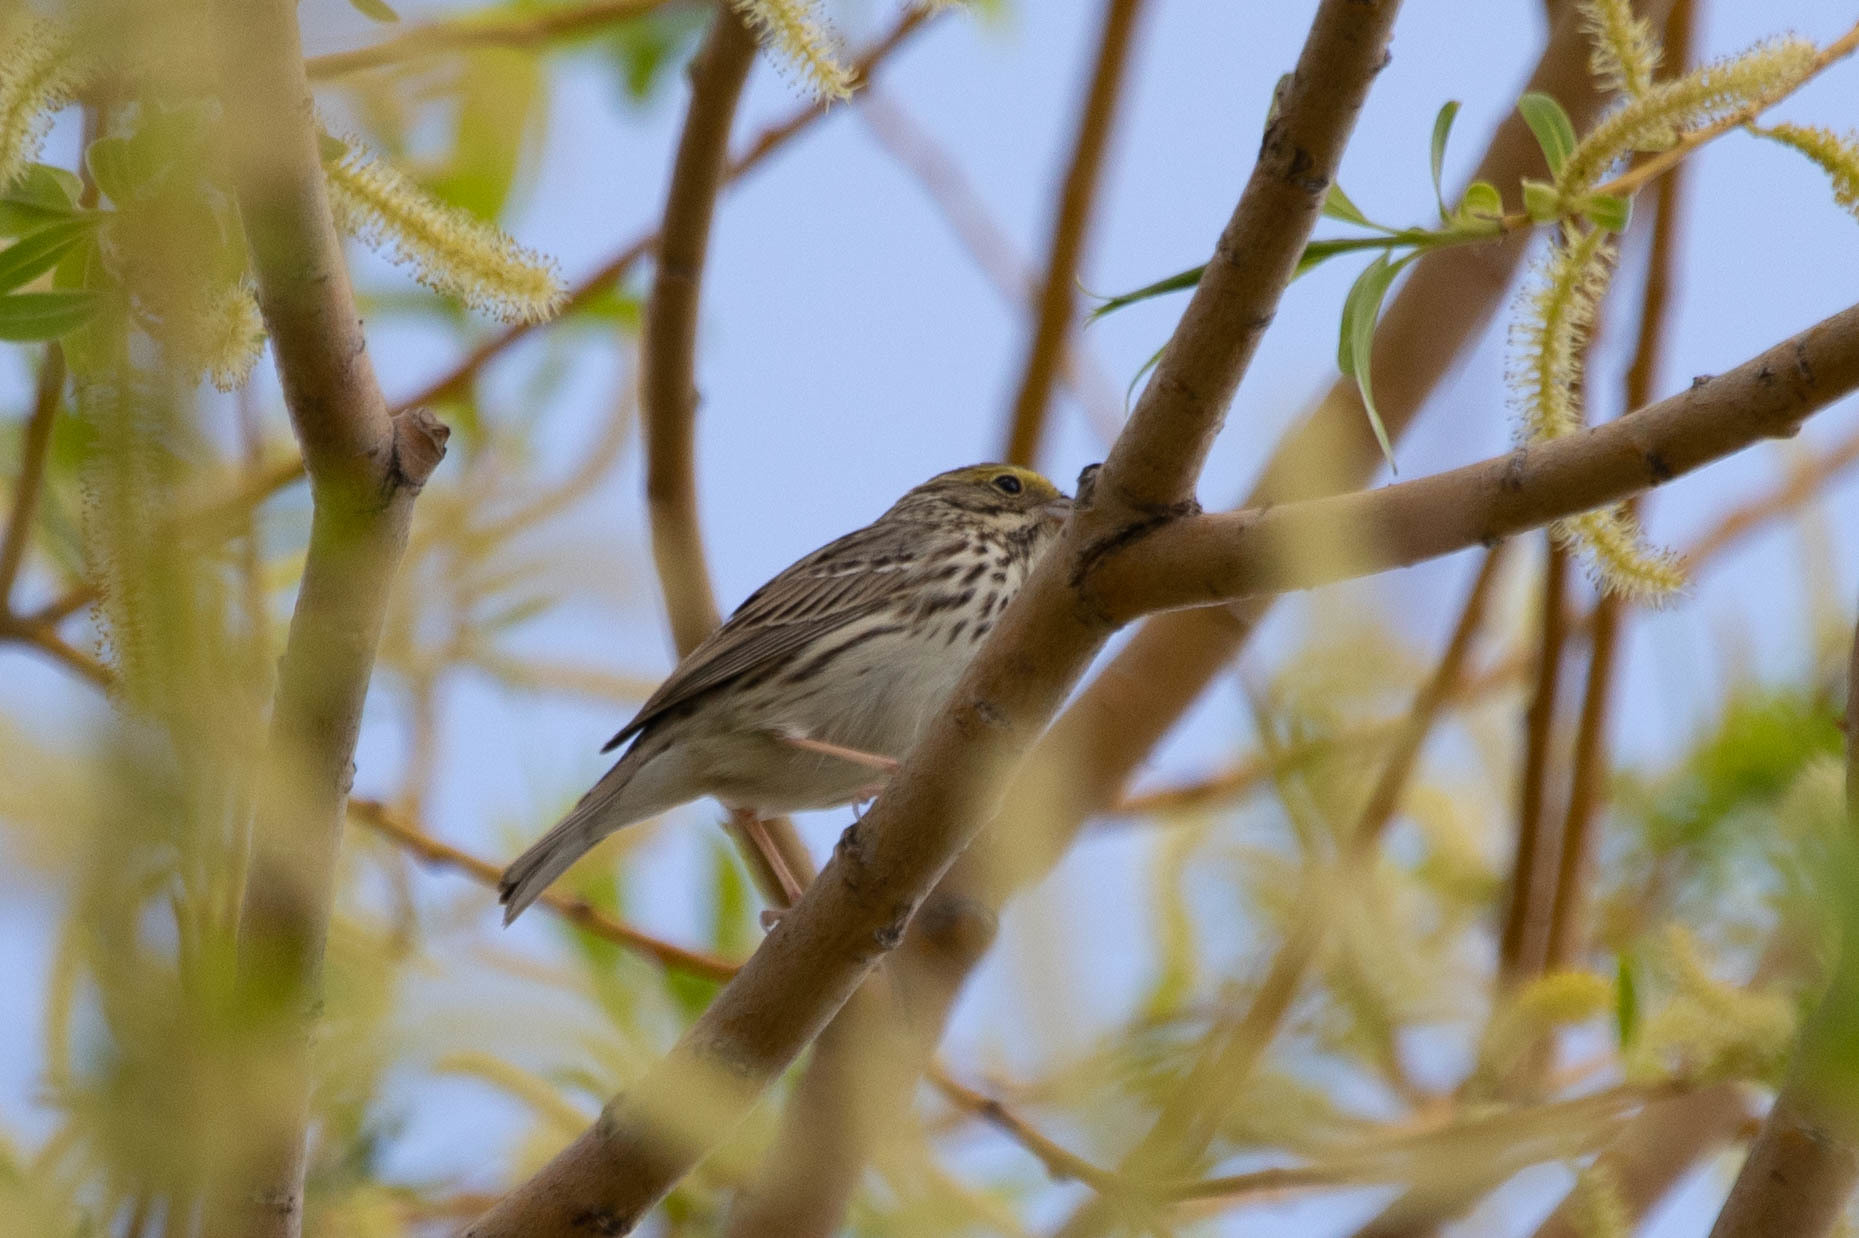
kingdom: Animalia
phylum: Chordata
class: Aves
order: Passeriformes
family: Passerellidae
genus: Passerculus
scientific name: Passerculus sandwichensis
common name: Savannah sparrow
